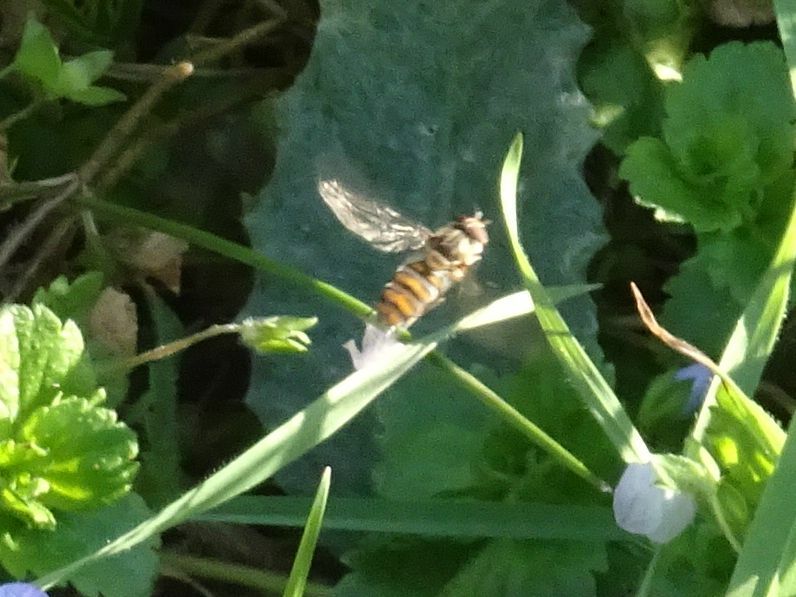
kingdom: Animalia
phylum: Arthropoda
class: Insecta
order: Diptera
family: Syrphidae
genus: Episyrphus
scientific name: Episyrphus balteatus
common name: Marmalade hoverfly
